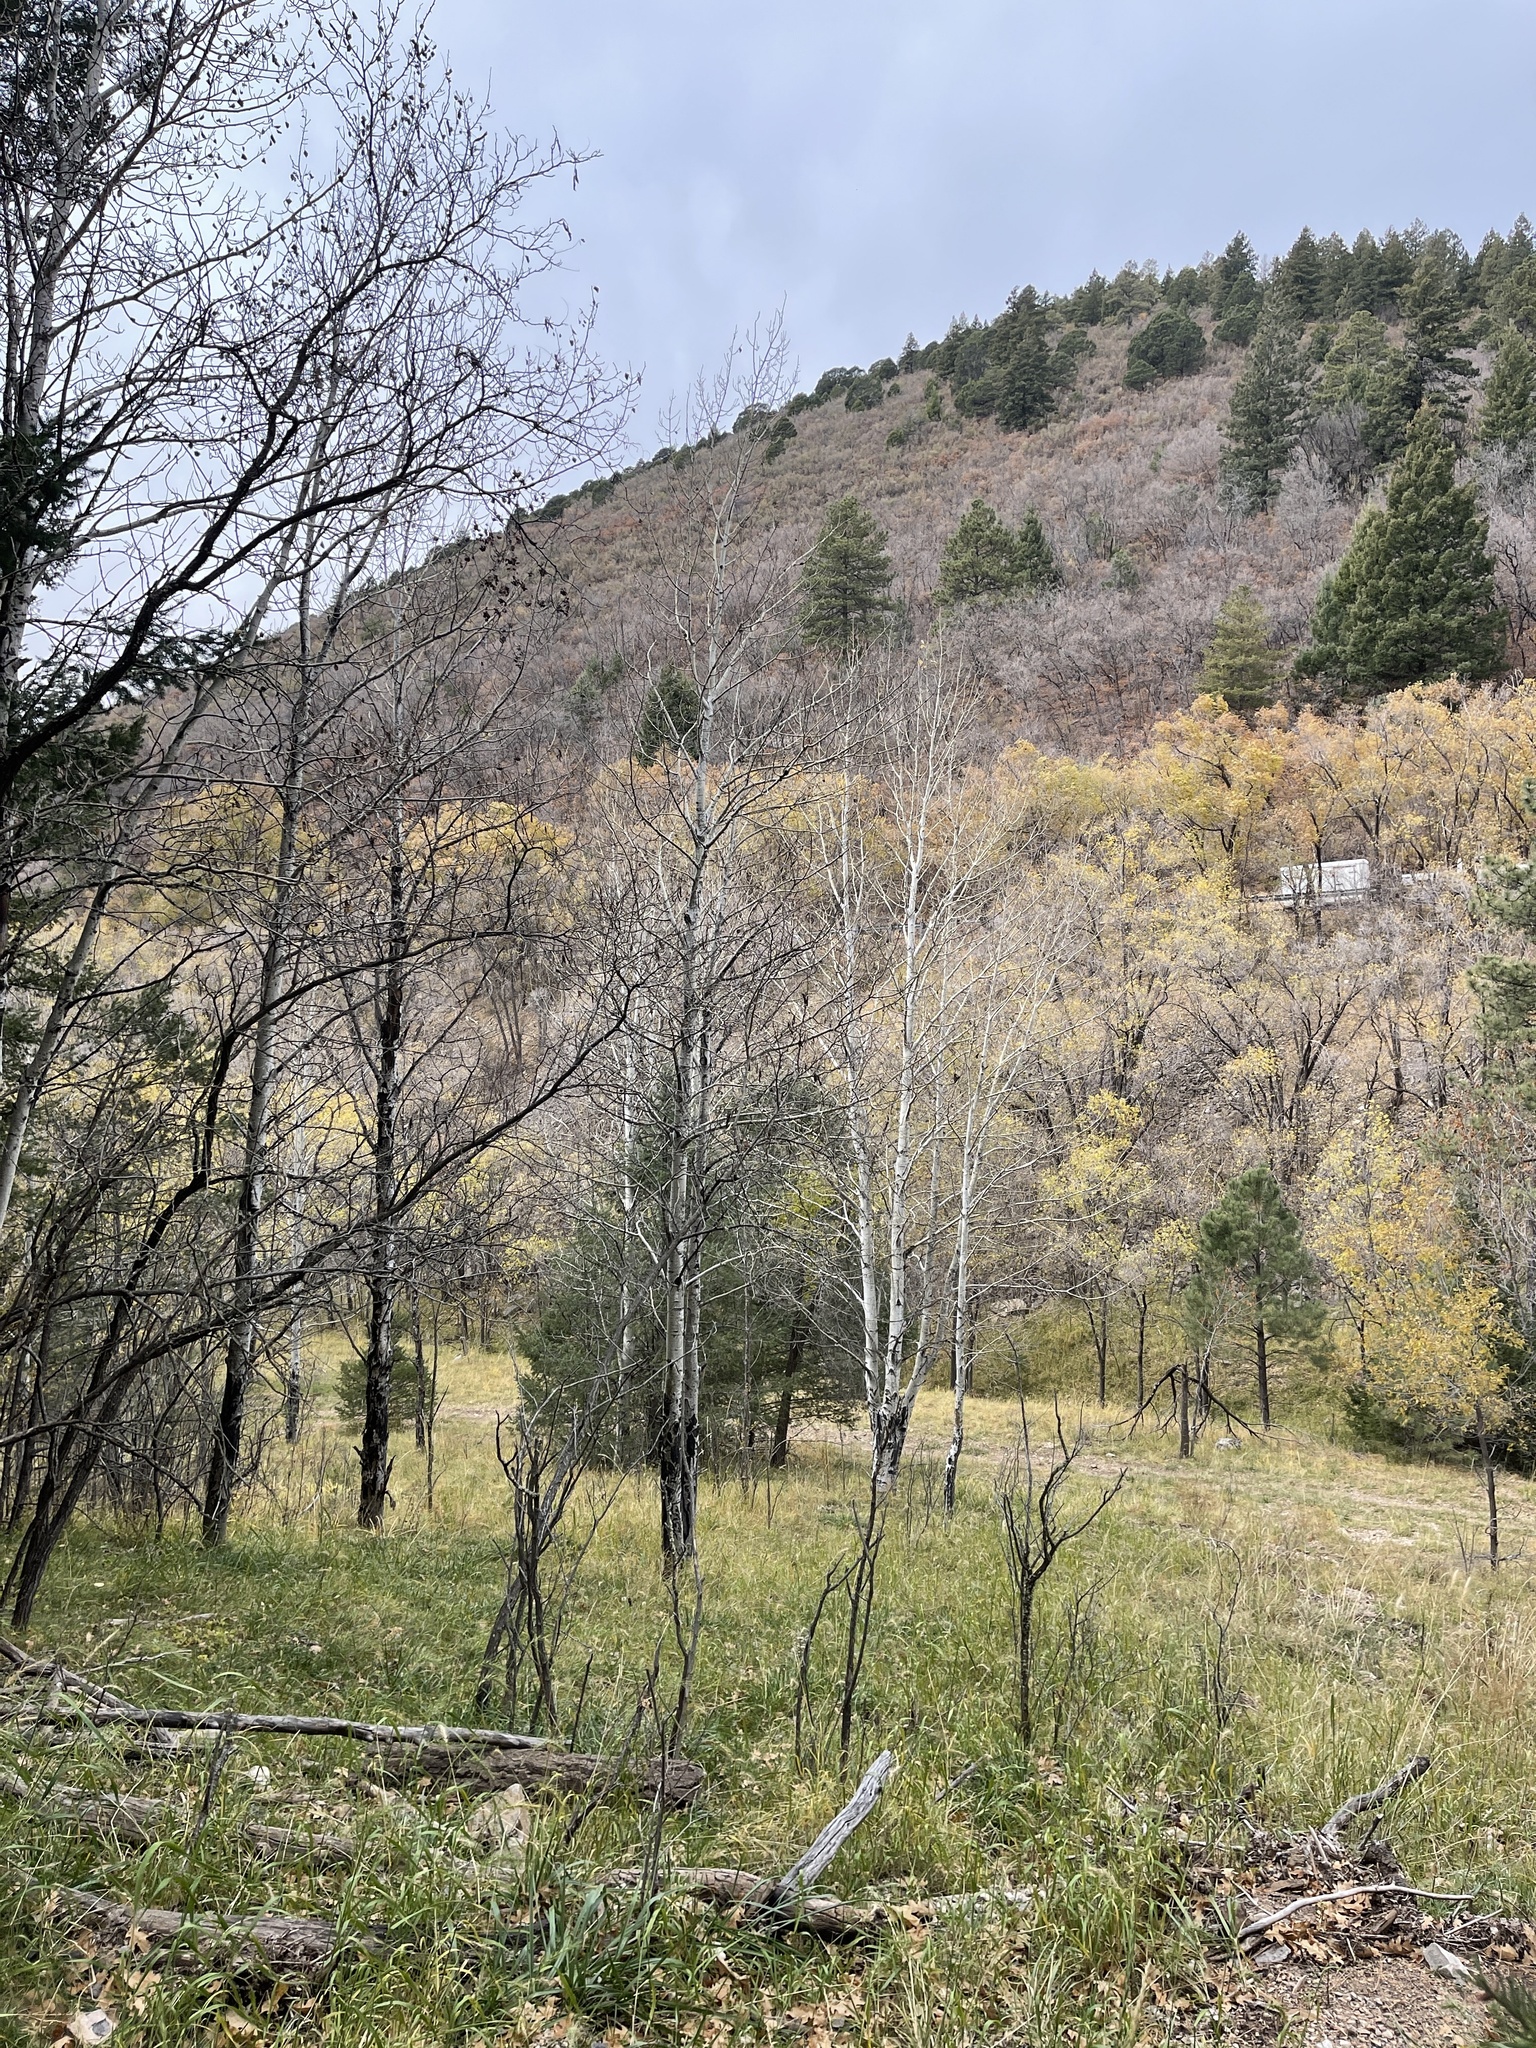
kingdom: Plantae
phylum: Tracheophyta
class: Magnoliopsida
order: Malpighiales
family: Salicaceae
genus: Populus
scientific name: Populus tremuloides
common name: Quaking aspen
